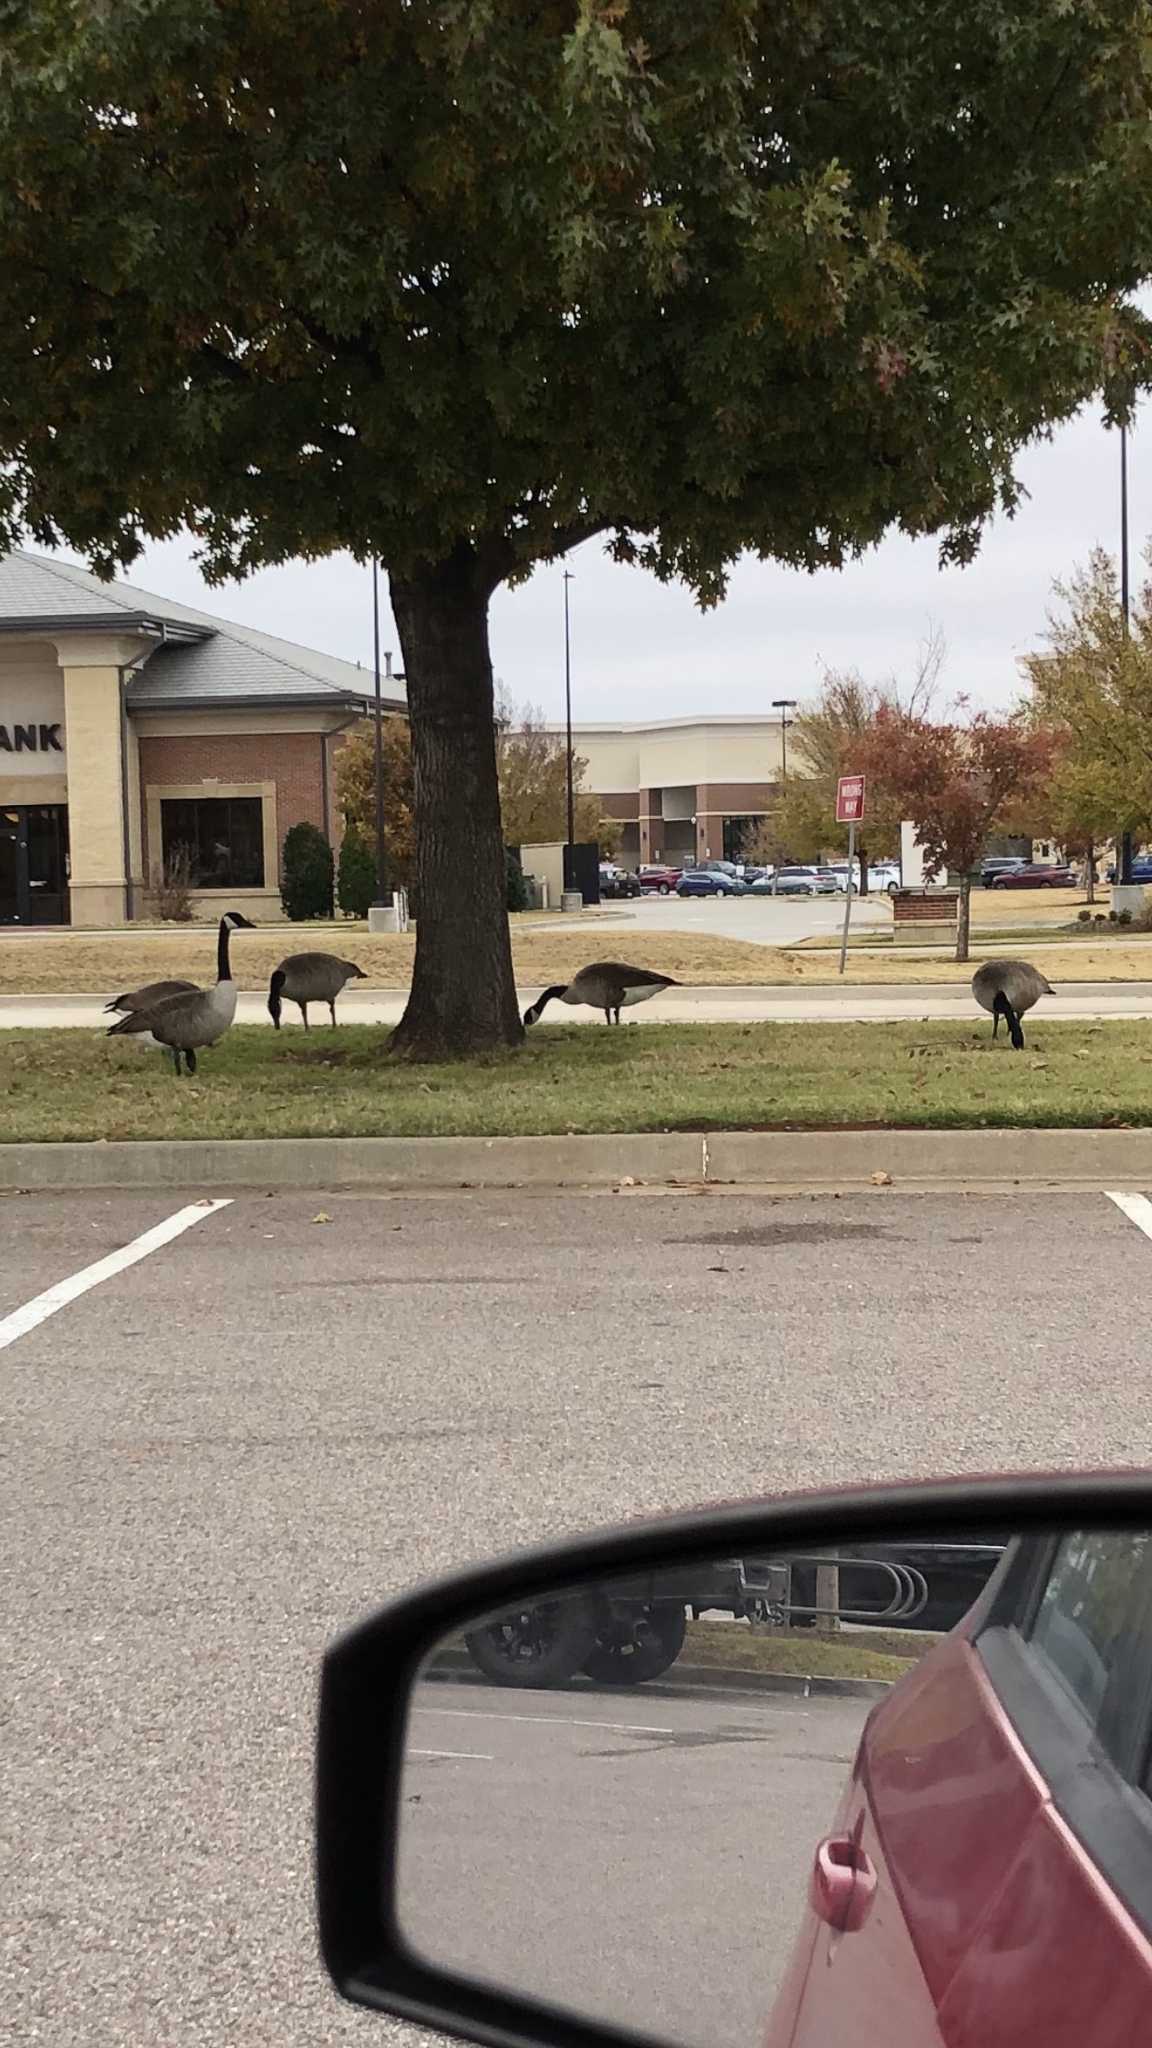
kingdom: Animalia
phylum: Chordata
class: Aves
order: Anseriformes
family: Anatidae
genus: Branta
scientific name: Branta canadensis
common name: Canada goose
